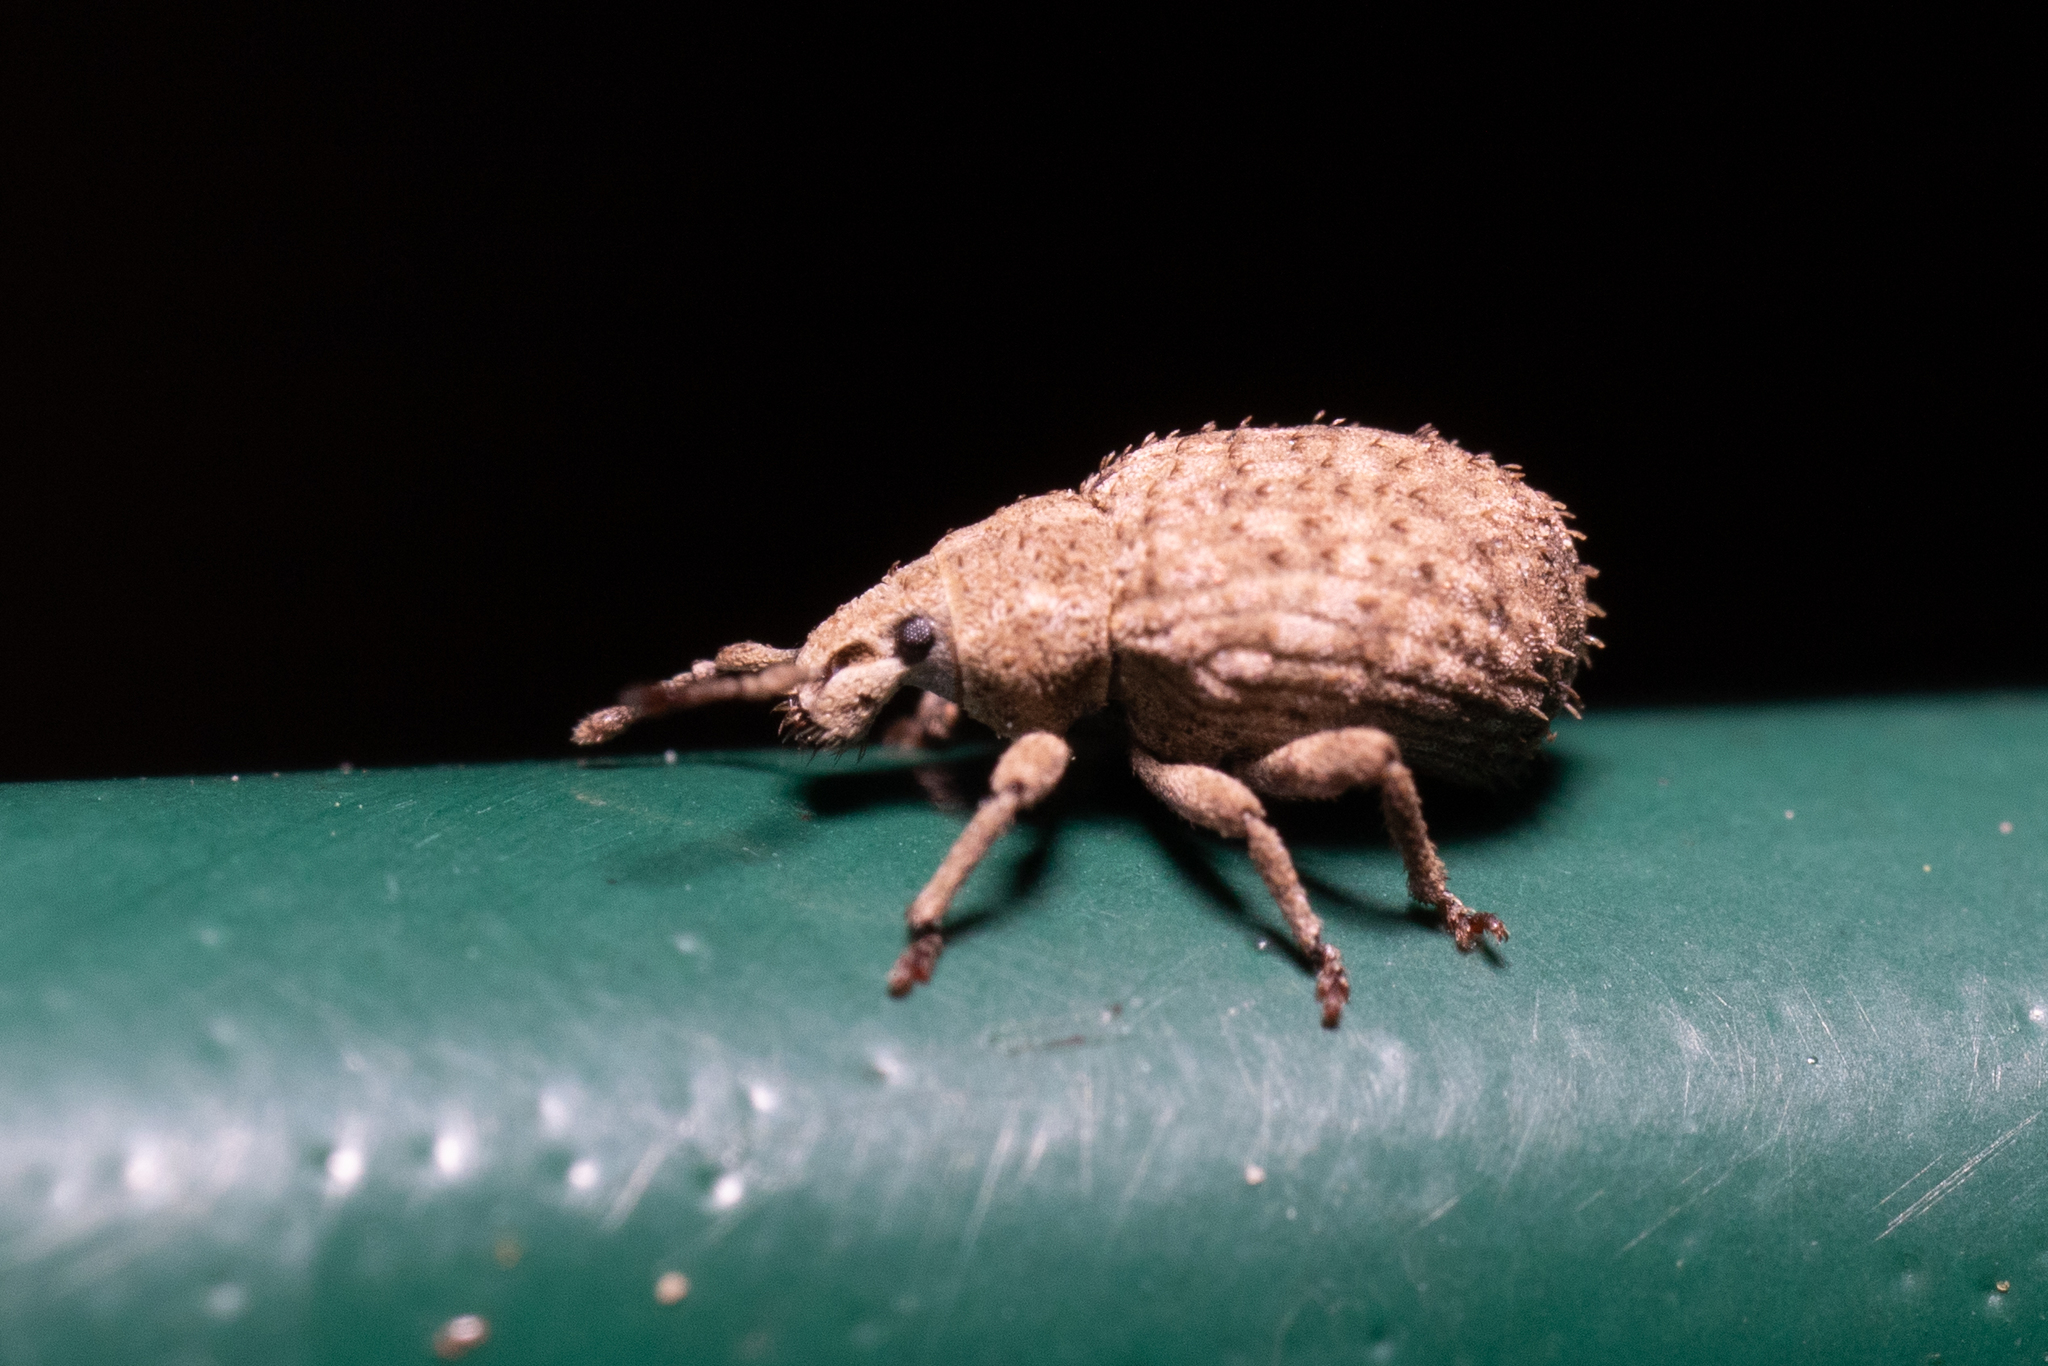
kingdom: Animalia
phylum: Arthropoda
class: Insecta
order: Coleoptera
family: Curculionidae
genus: Romualdius
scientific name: Romualdius scaber
